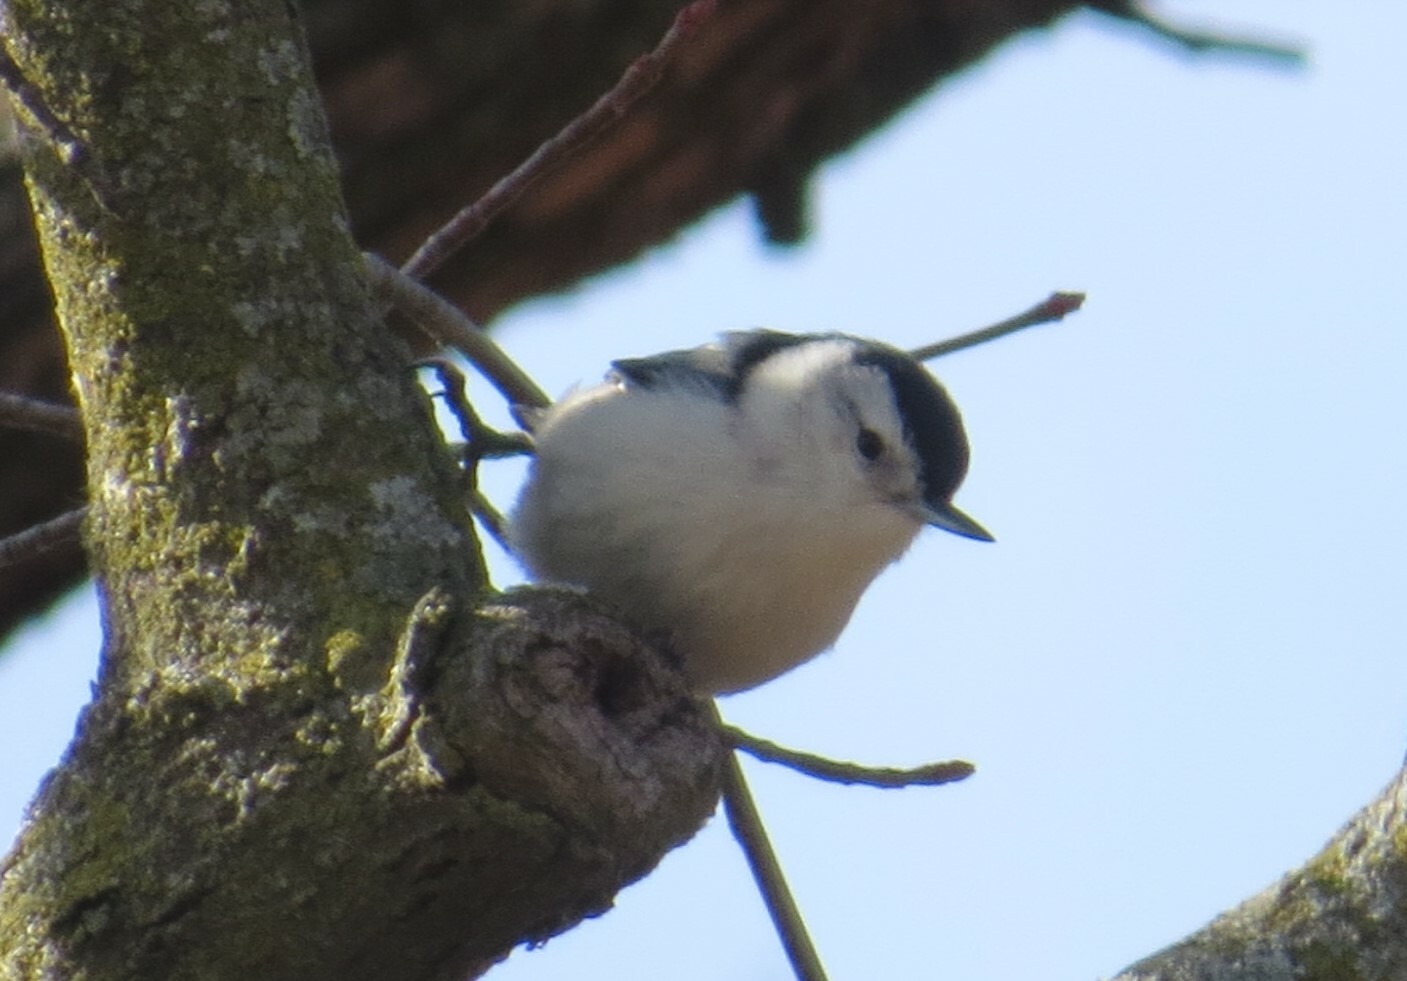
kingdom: Animalia
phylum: Chordata
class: Aves
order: Passeriformes
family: Sittidae
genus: Sitta
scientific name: Sitta carolinensis
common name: White-breasted nuthatch
